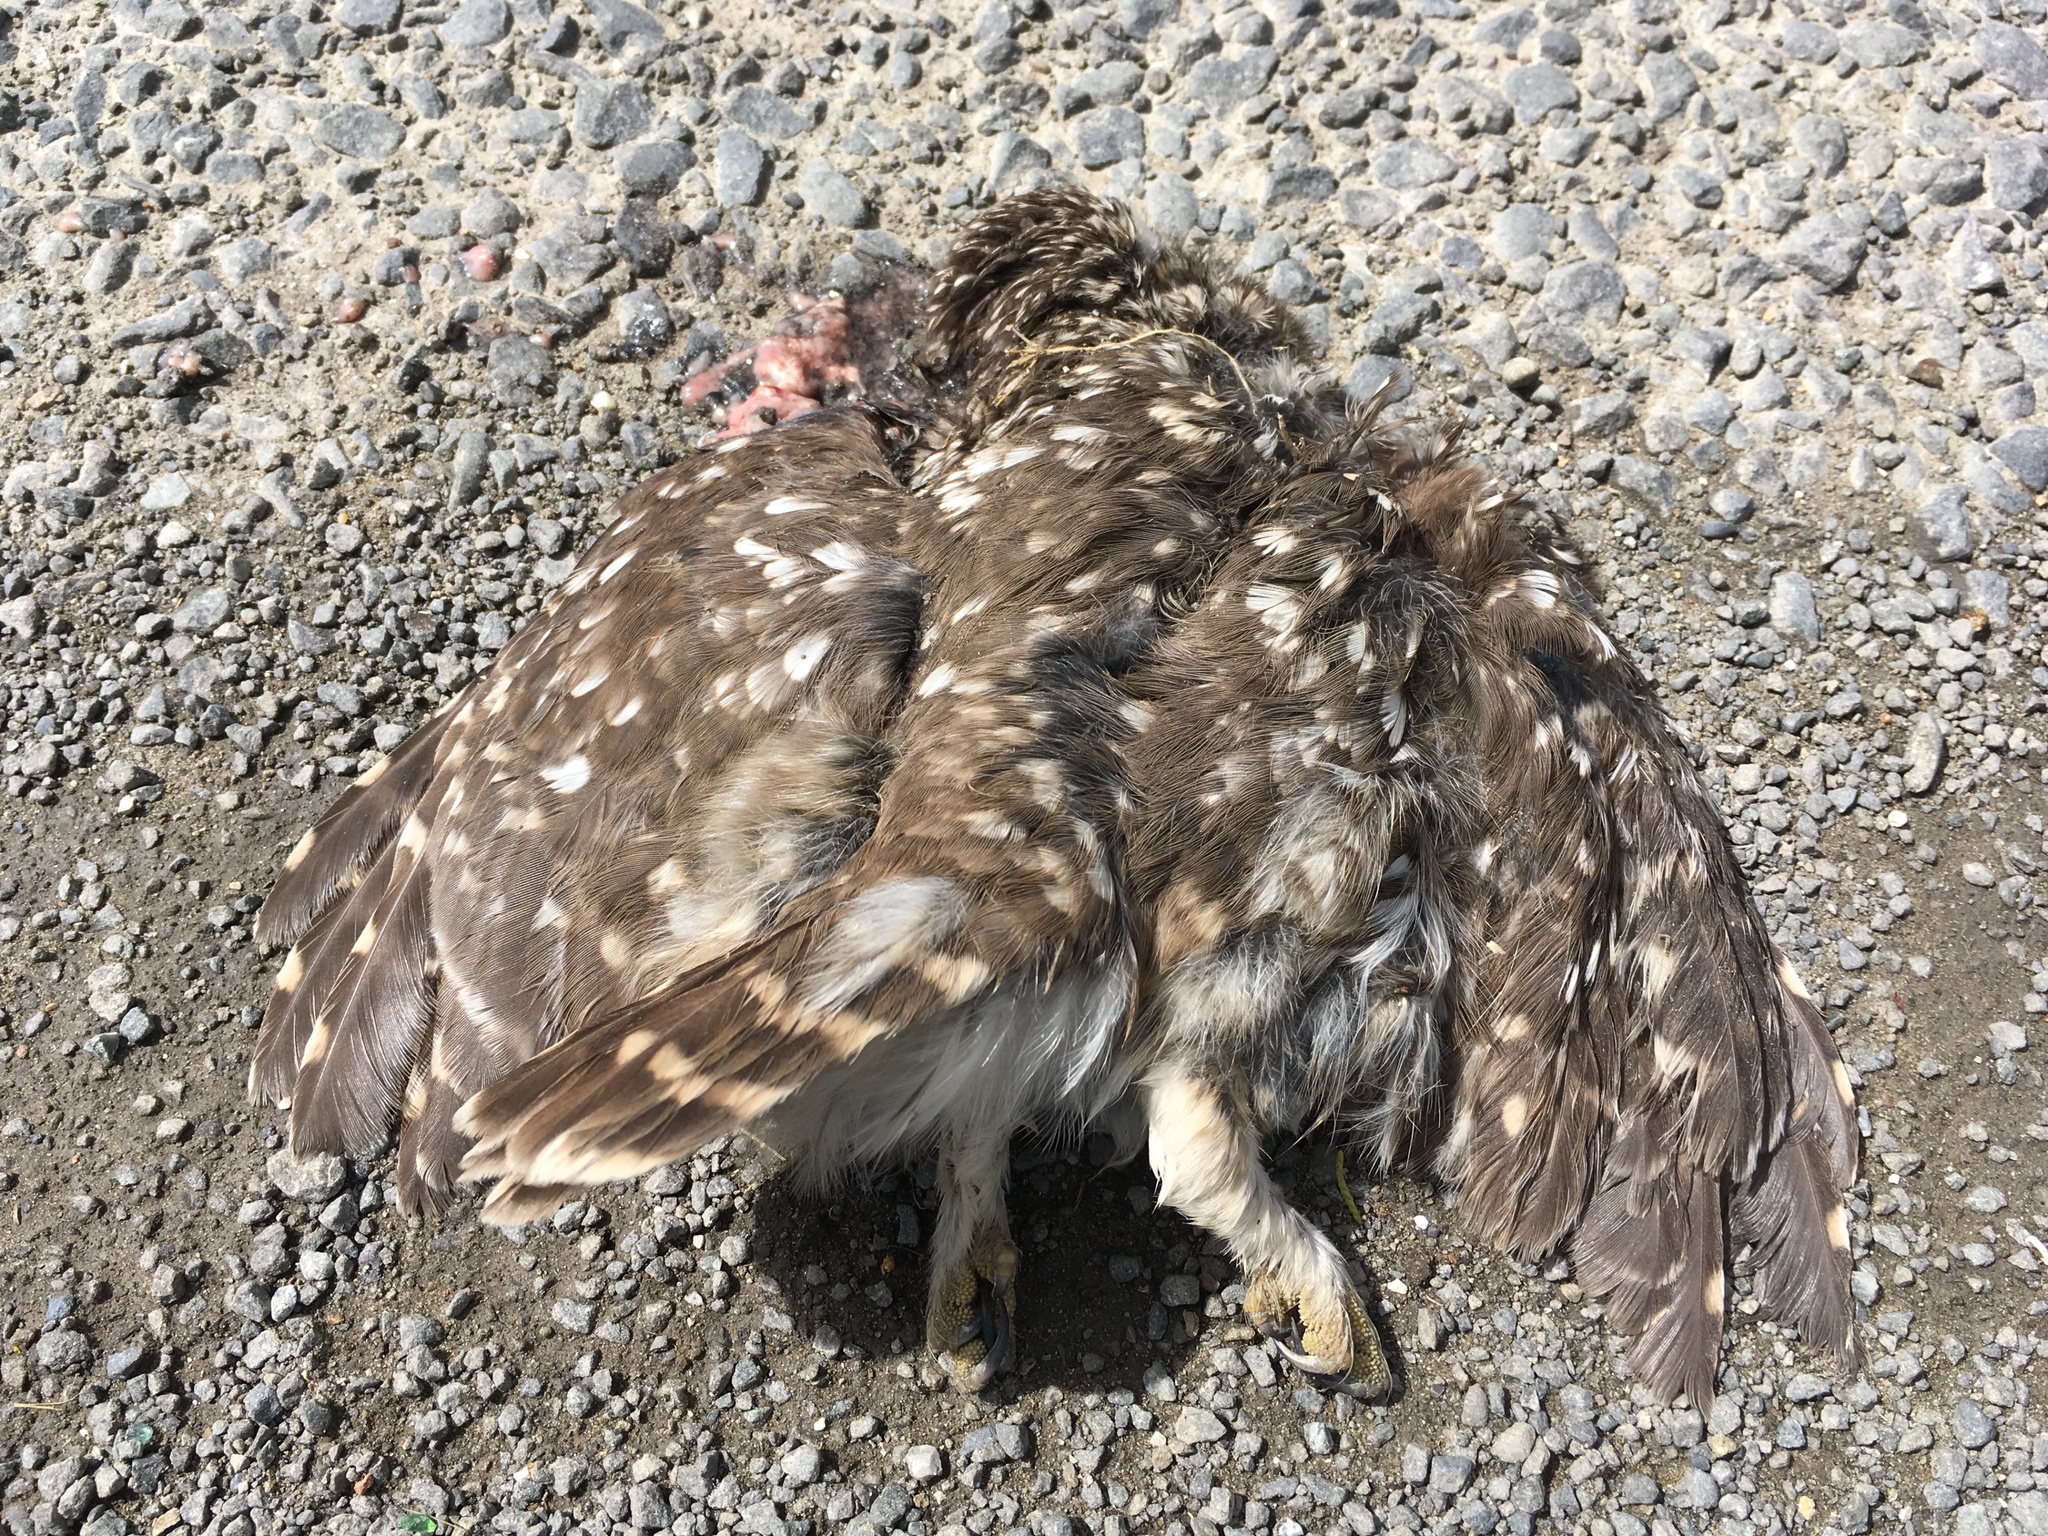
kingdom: Animalia
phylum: Chordata
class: Aves
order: Strigiformes
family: Strigidae
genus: Athene
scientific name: Athene noctua
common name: Little owl
